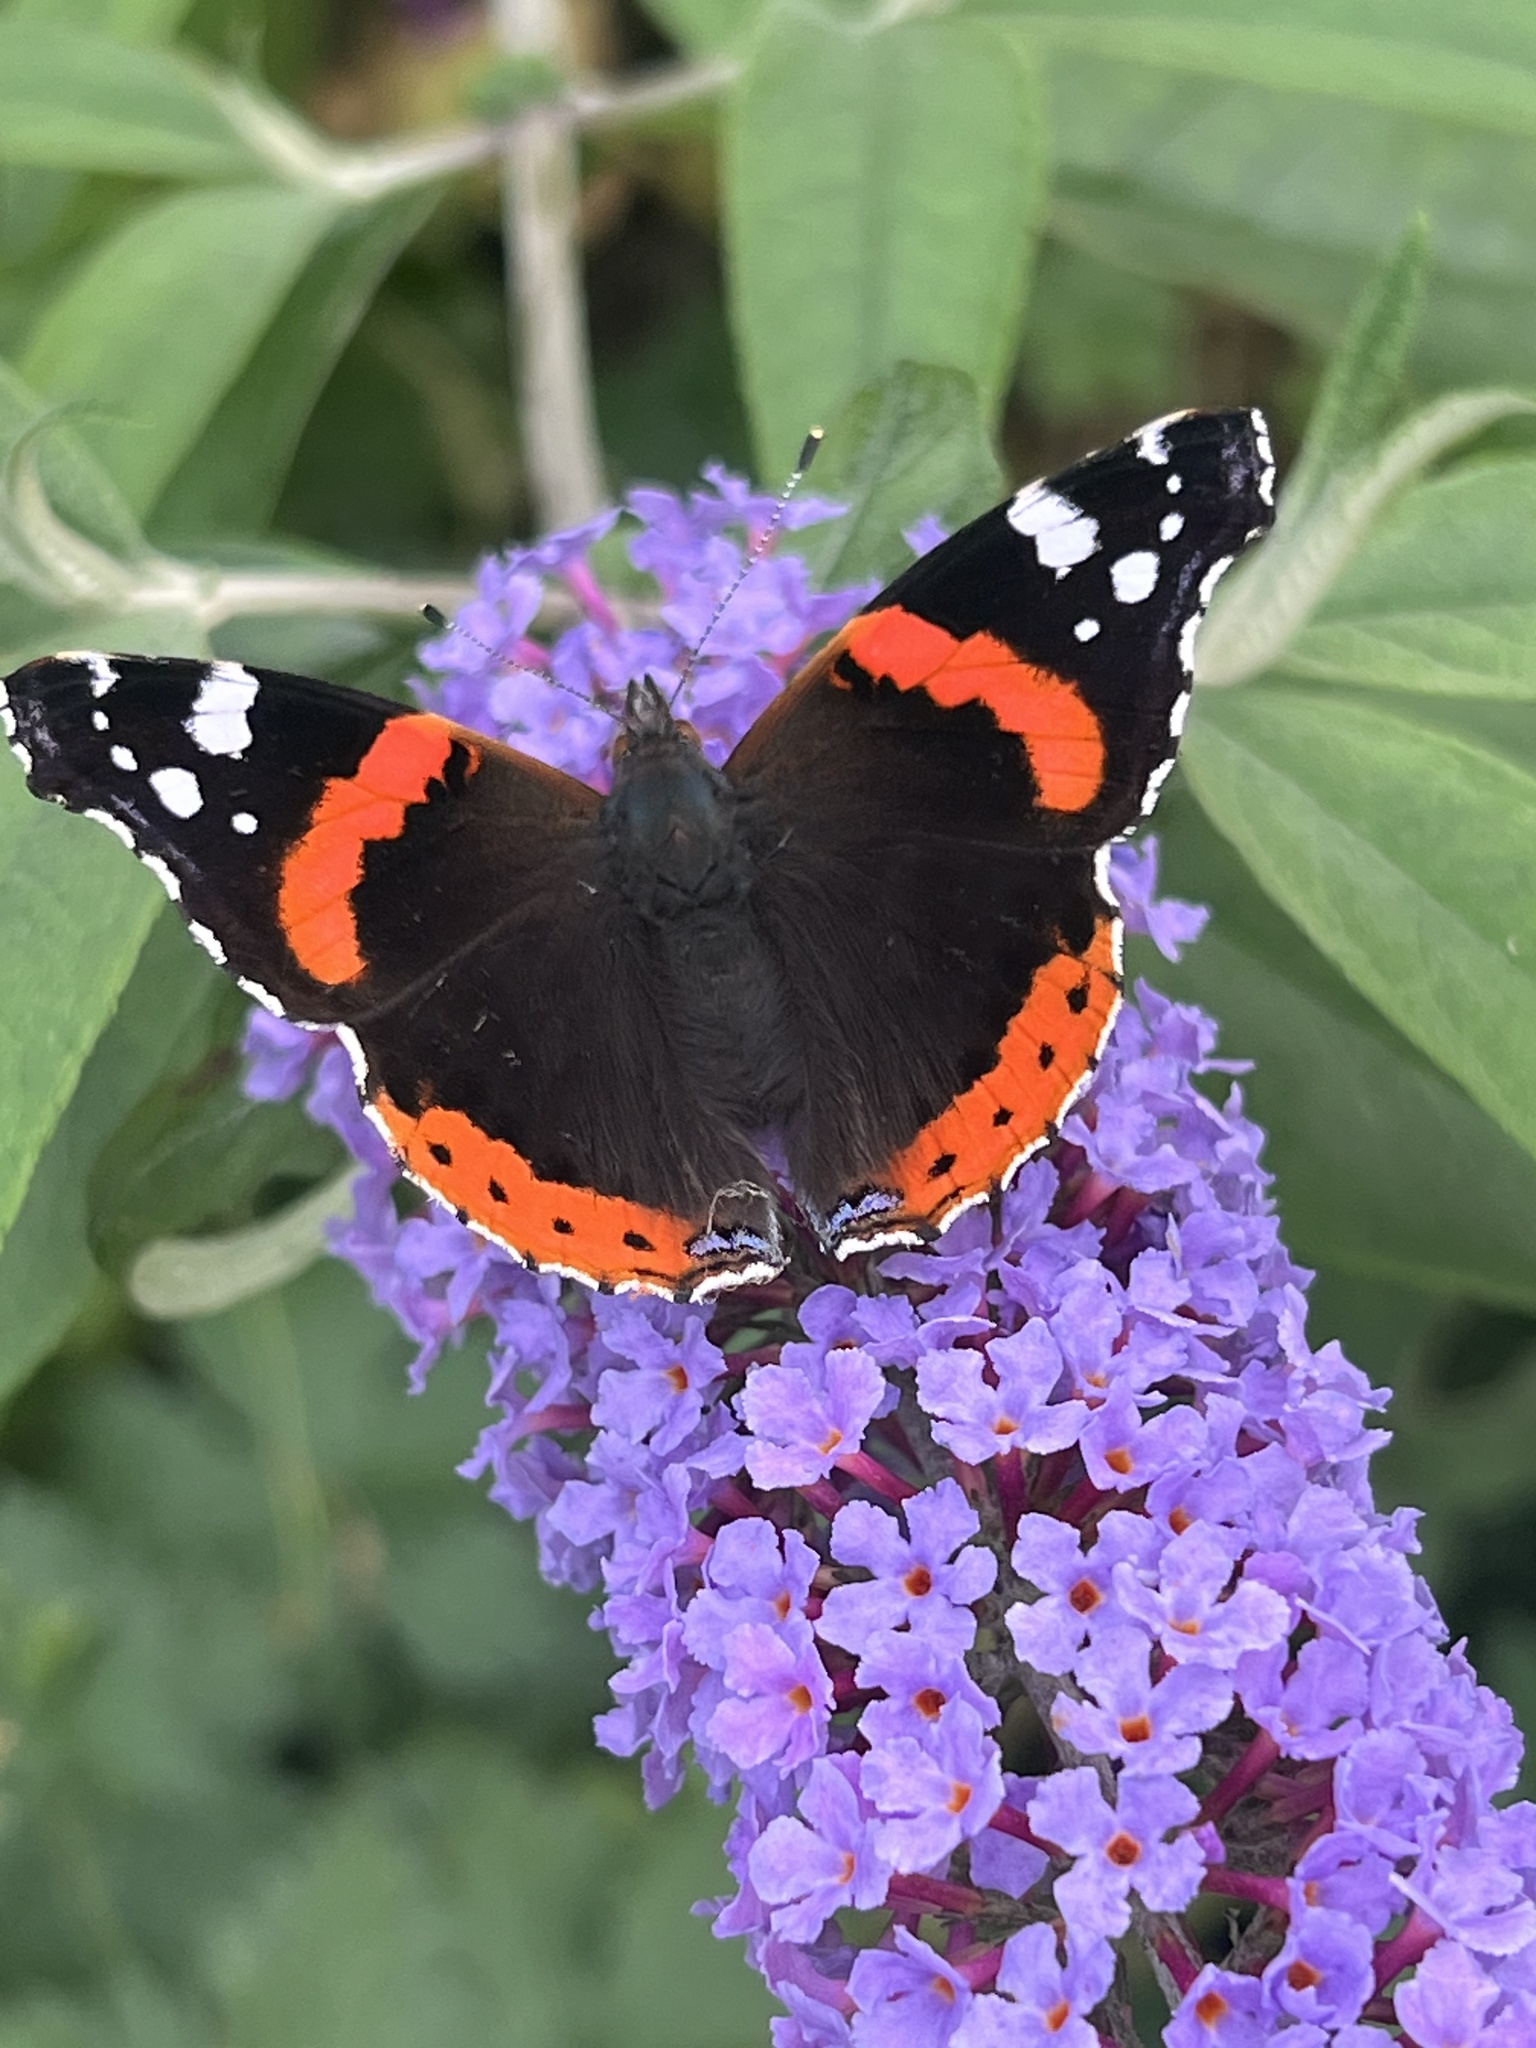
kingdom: Animalia
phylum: Arthropoda
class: Insecta
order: Lepidoptera
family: Nymphalidae
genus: Vanessa
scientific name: Vanessa atalanta
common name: Red admiral
